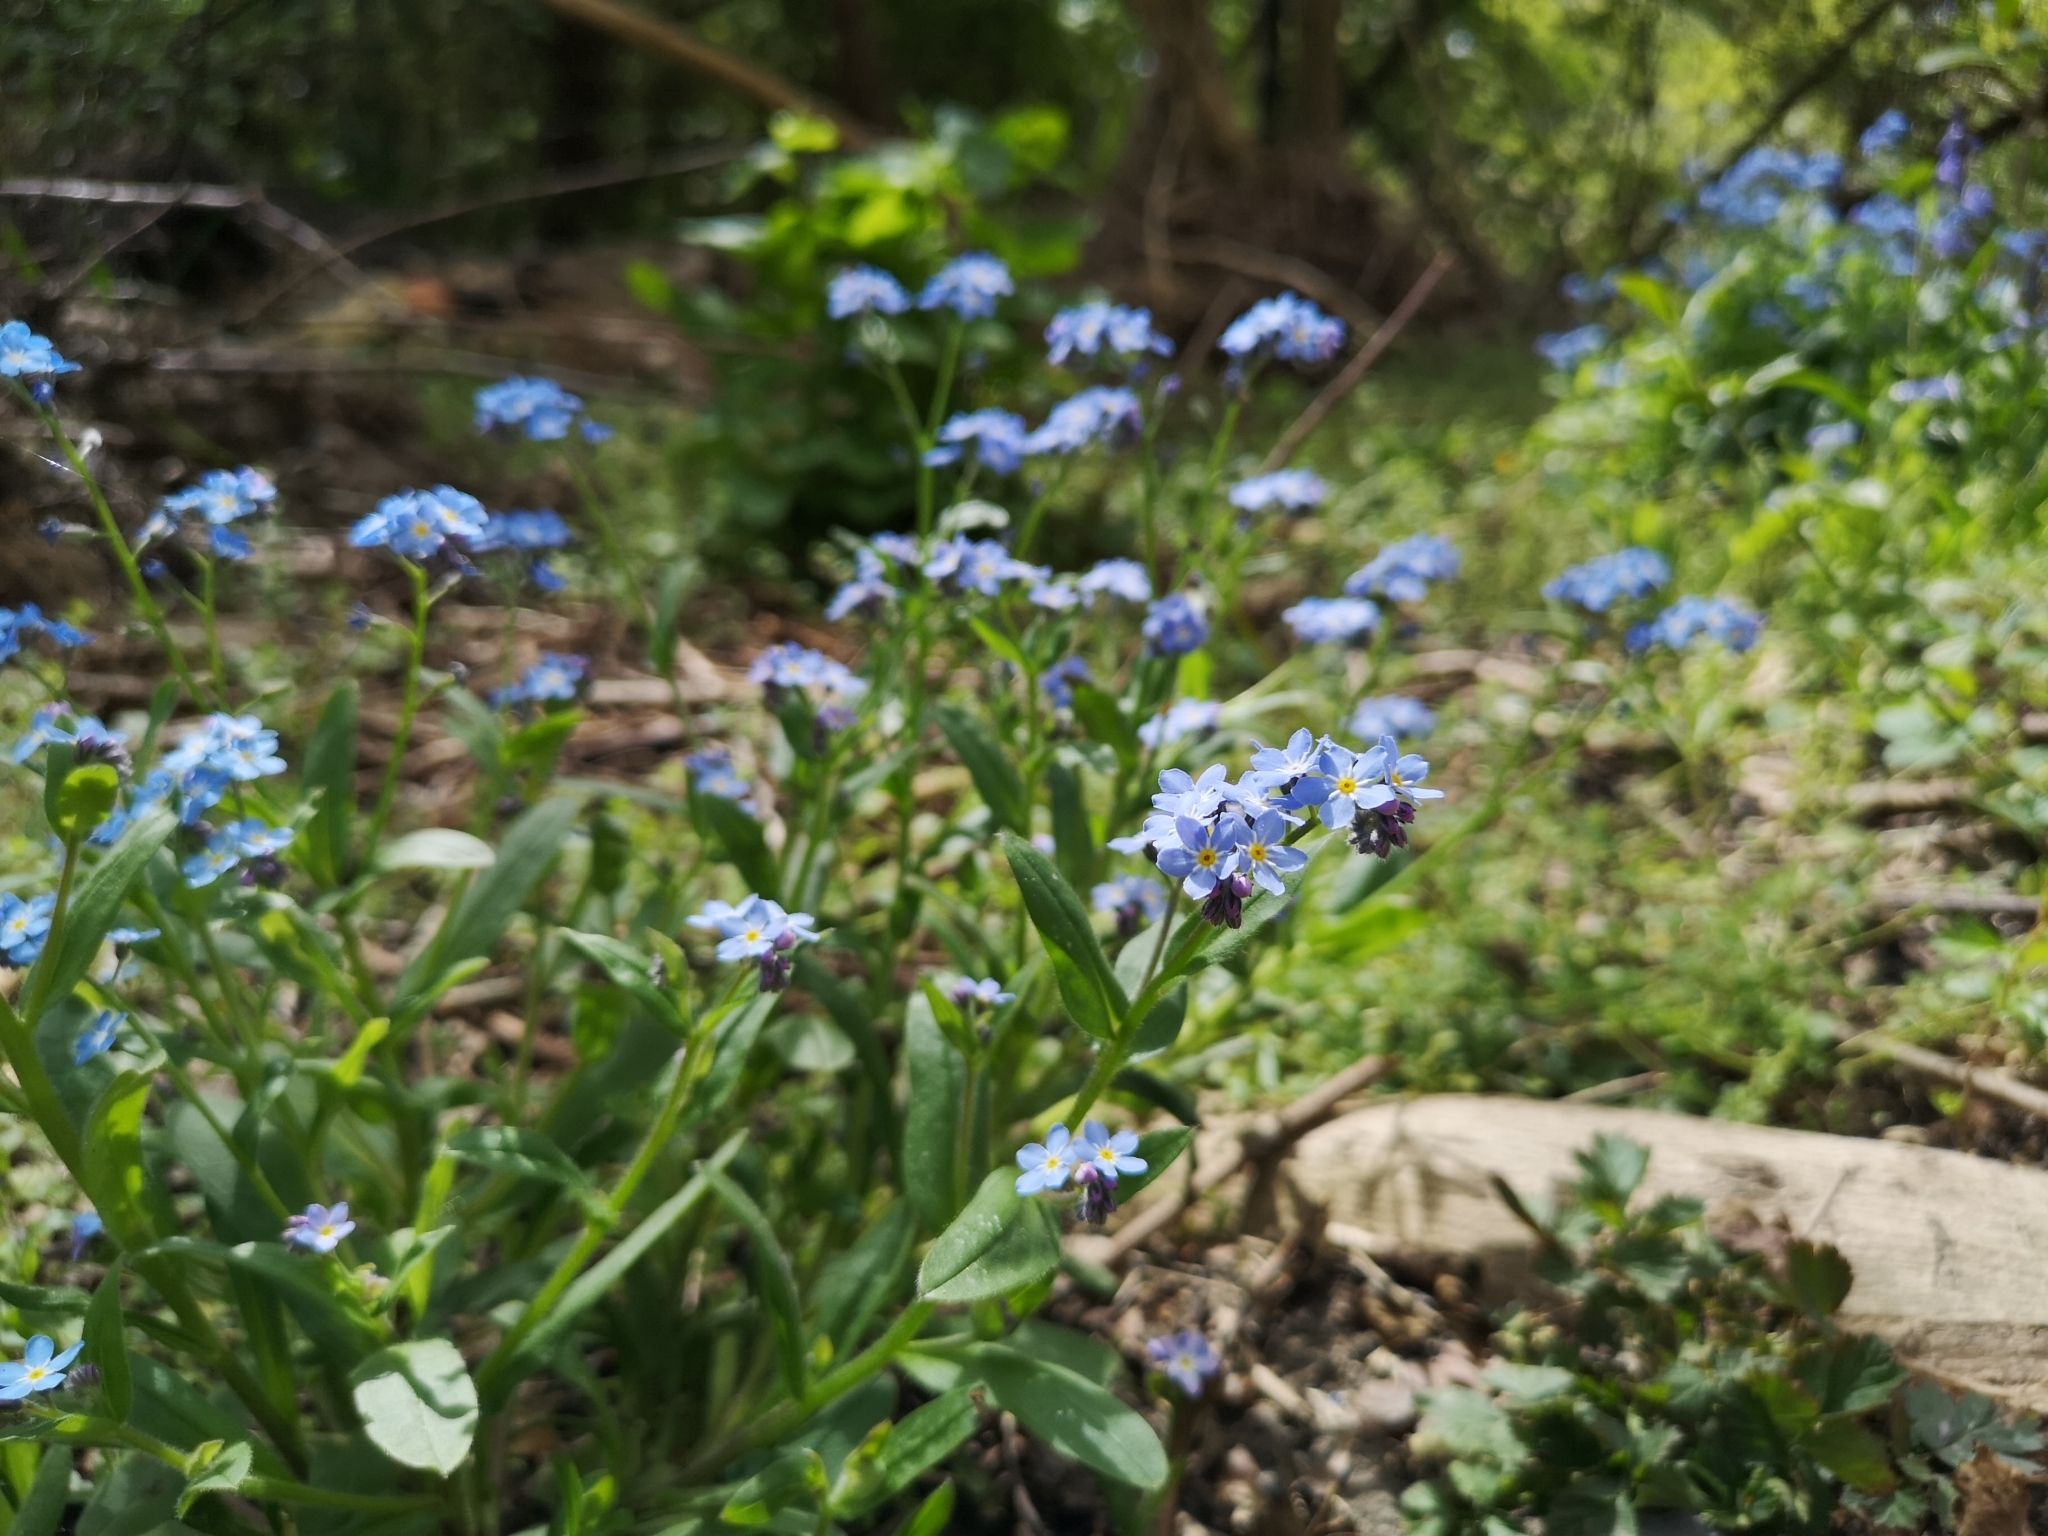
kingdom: Plantae
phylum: Tracheophyta
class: Magnoliopsida
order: Boraginales
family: Boraginaceae
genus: Myosotis
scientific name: Myosotis sylvatica
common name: Wood forget-me-not
